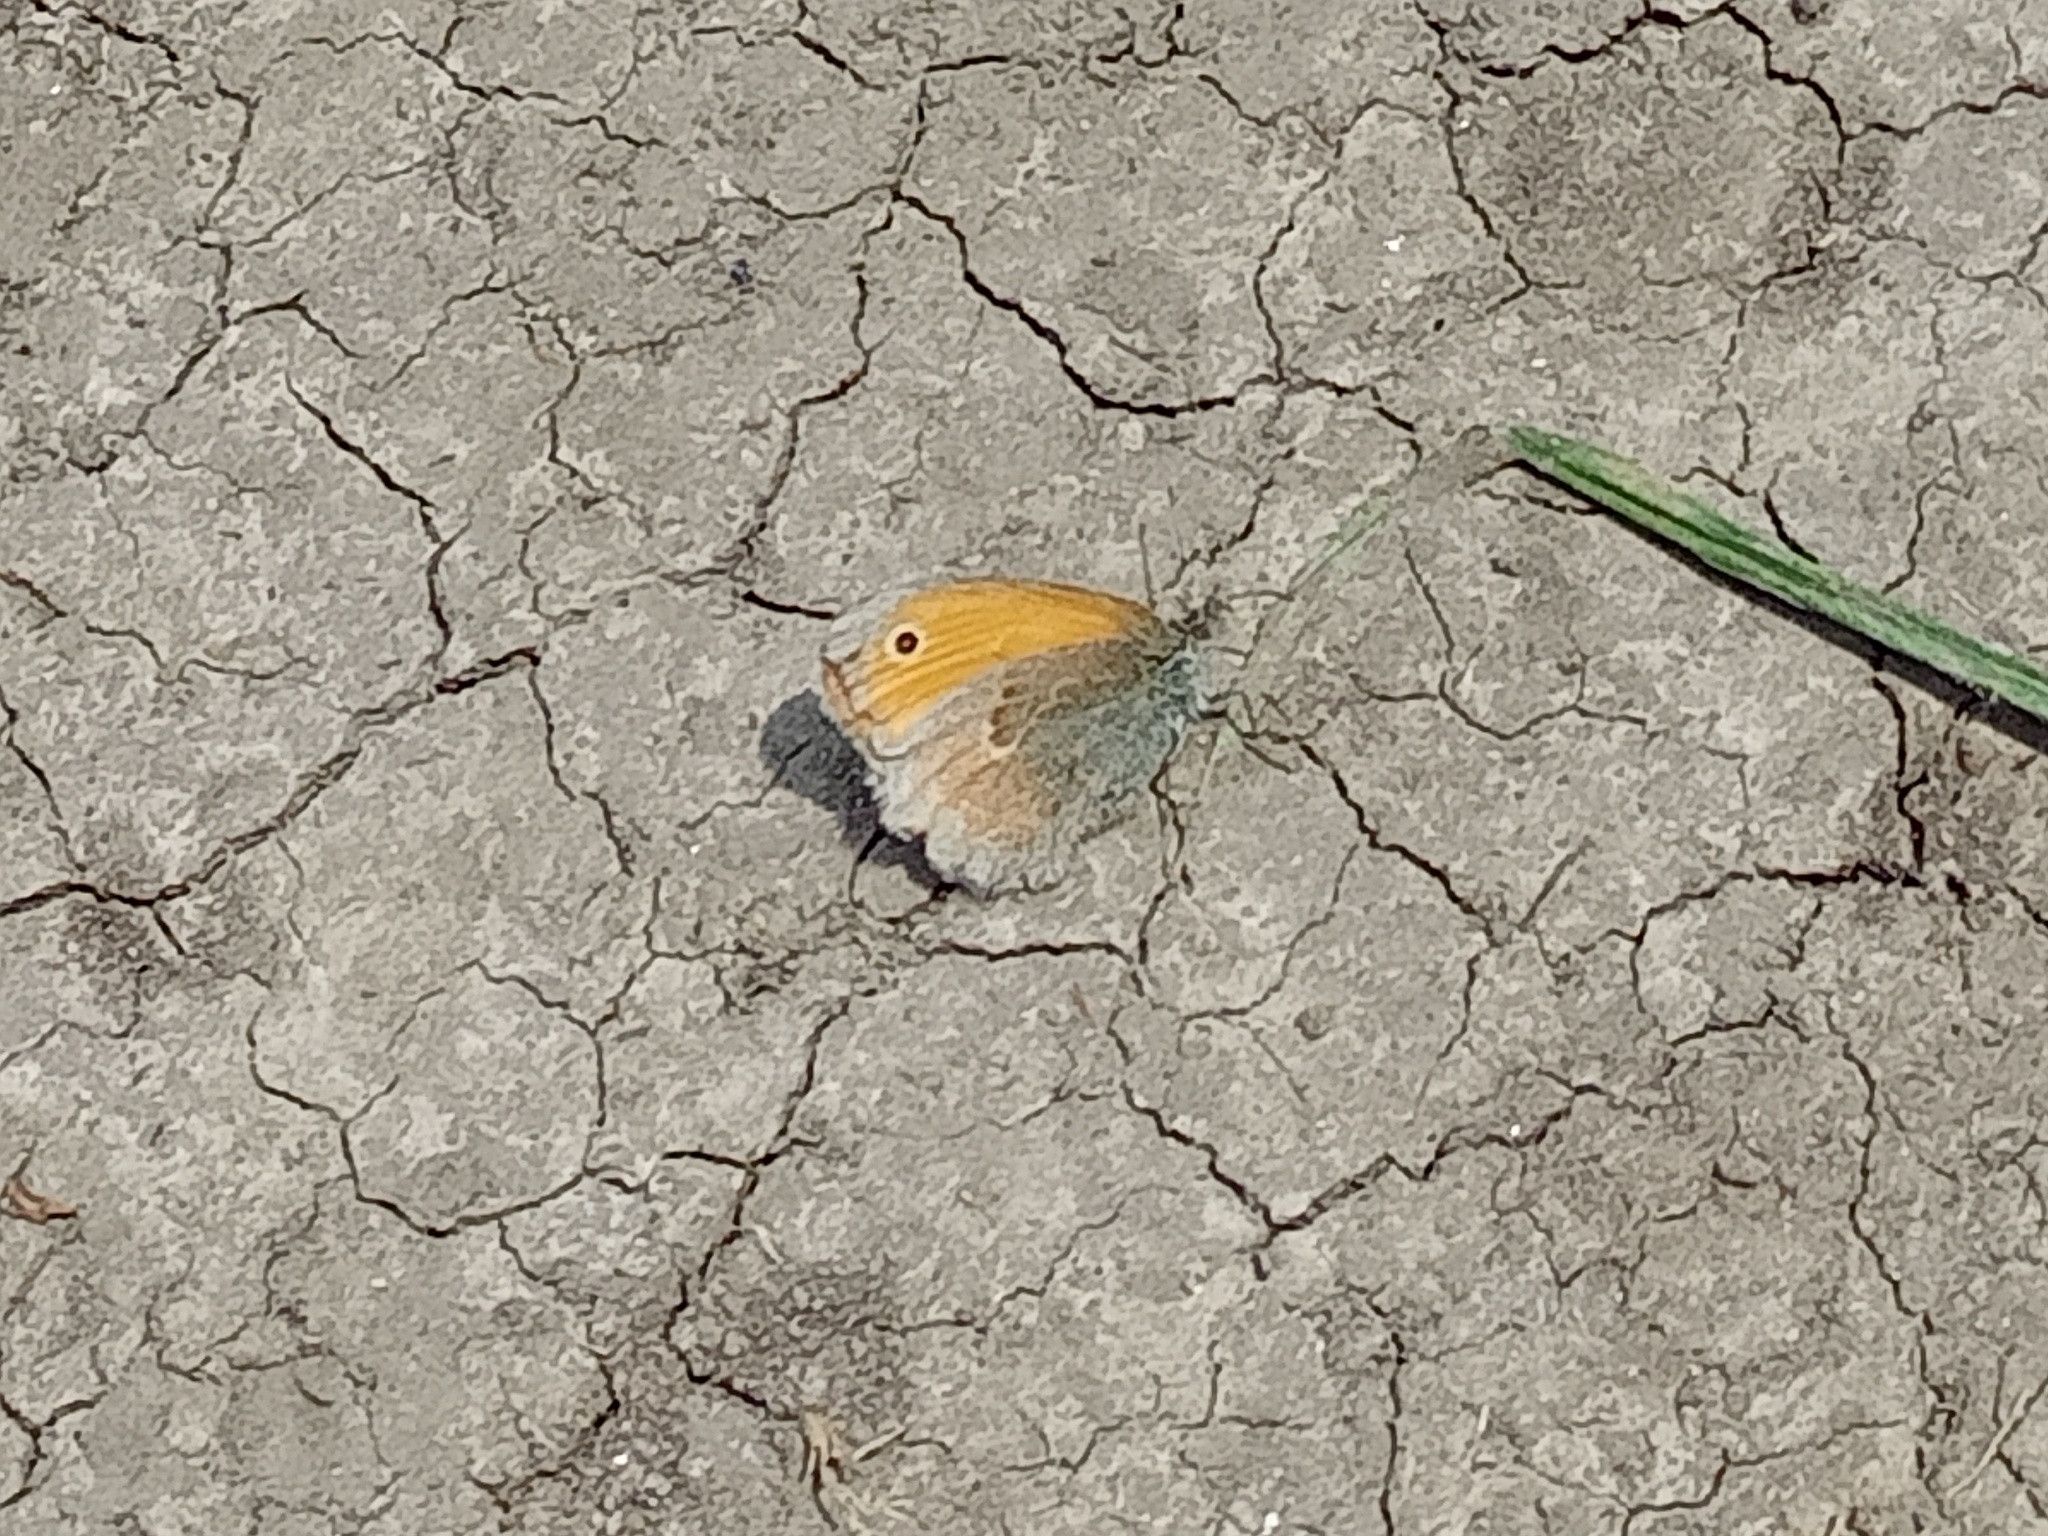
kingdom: Animalia
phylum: Arthropoda
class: Insecta
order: Lepidoptera
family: Nymphalidae
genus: Coenonympha
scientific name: Coenonympha pamphilus
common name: Small heath
